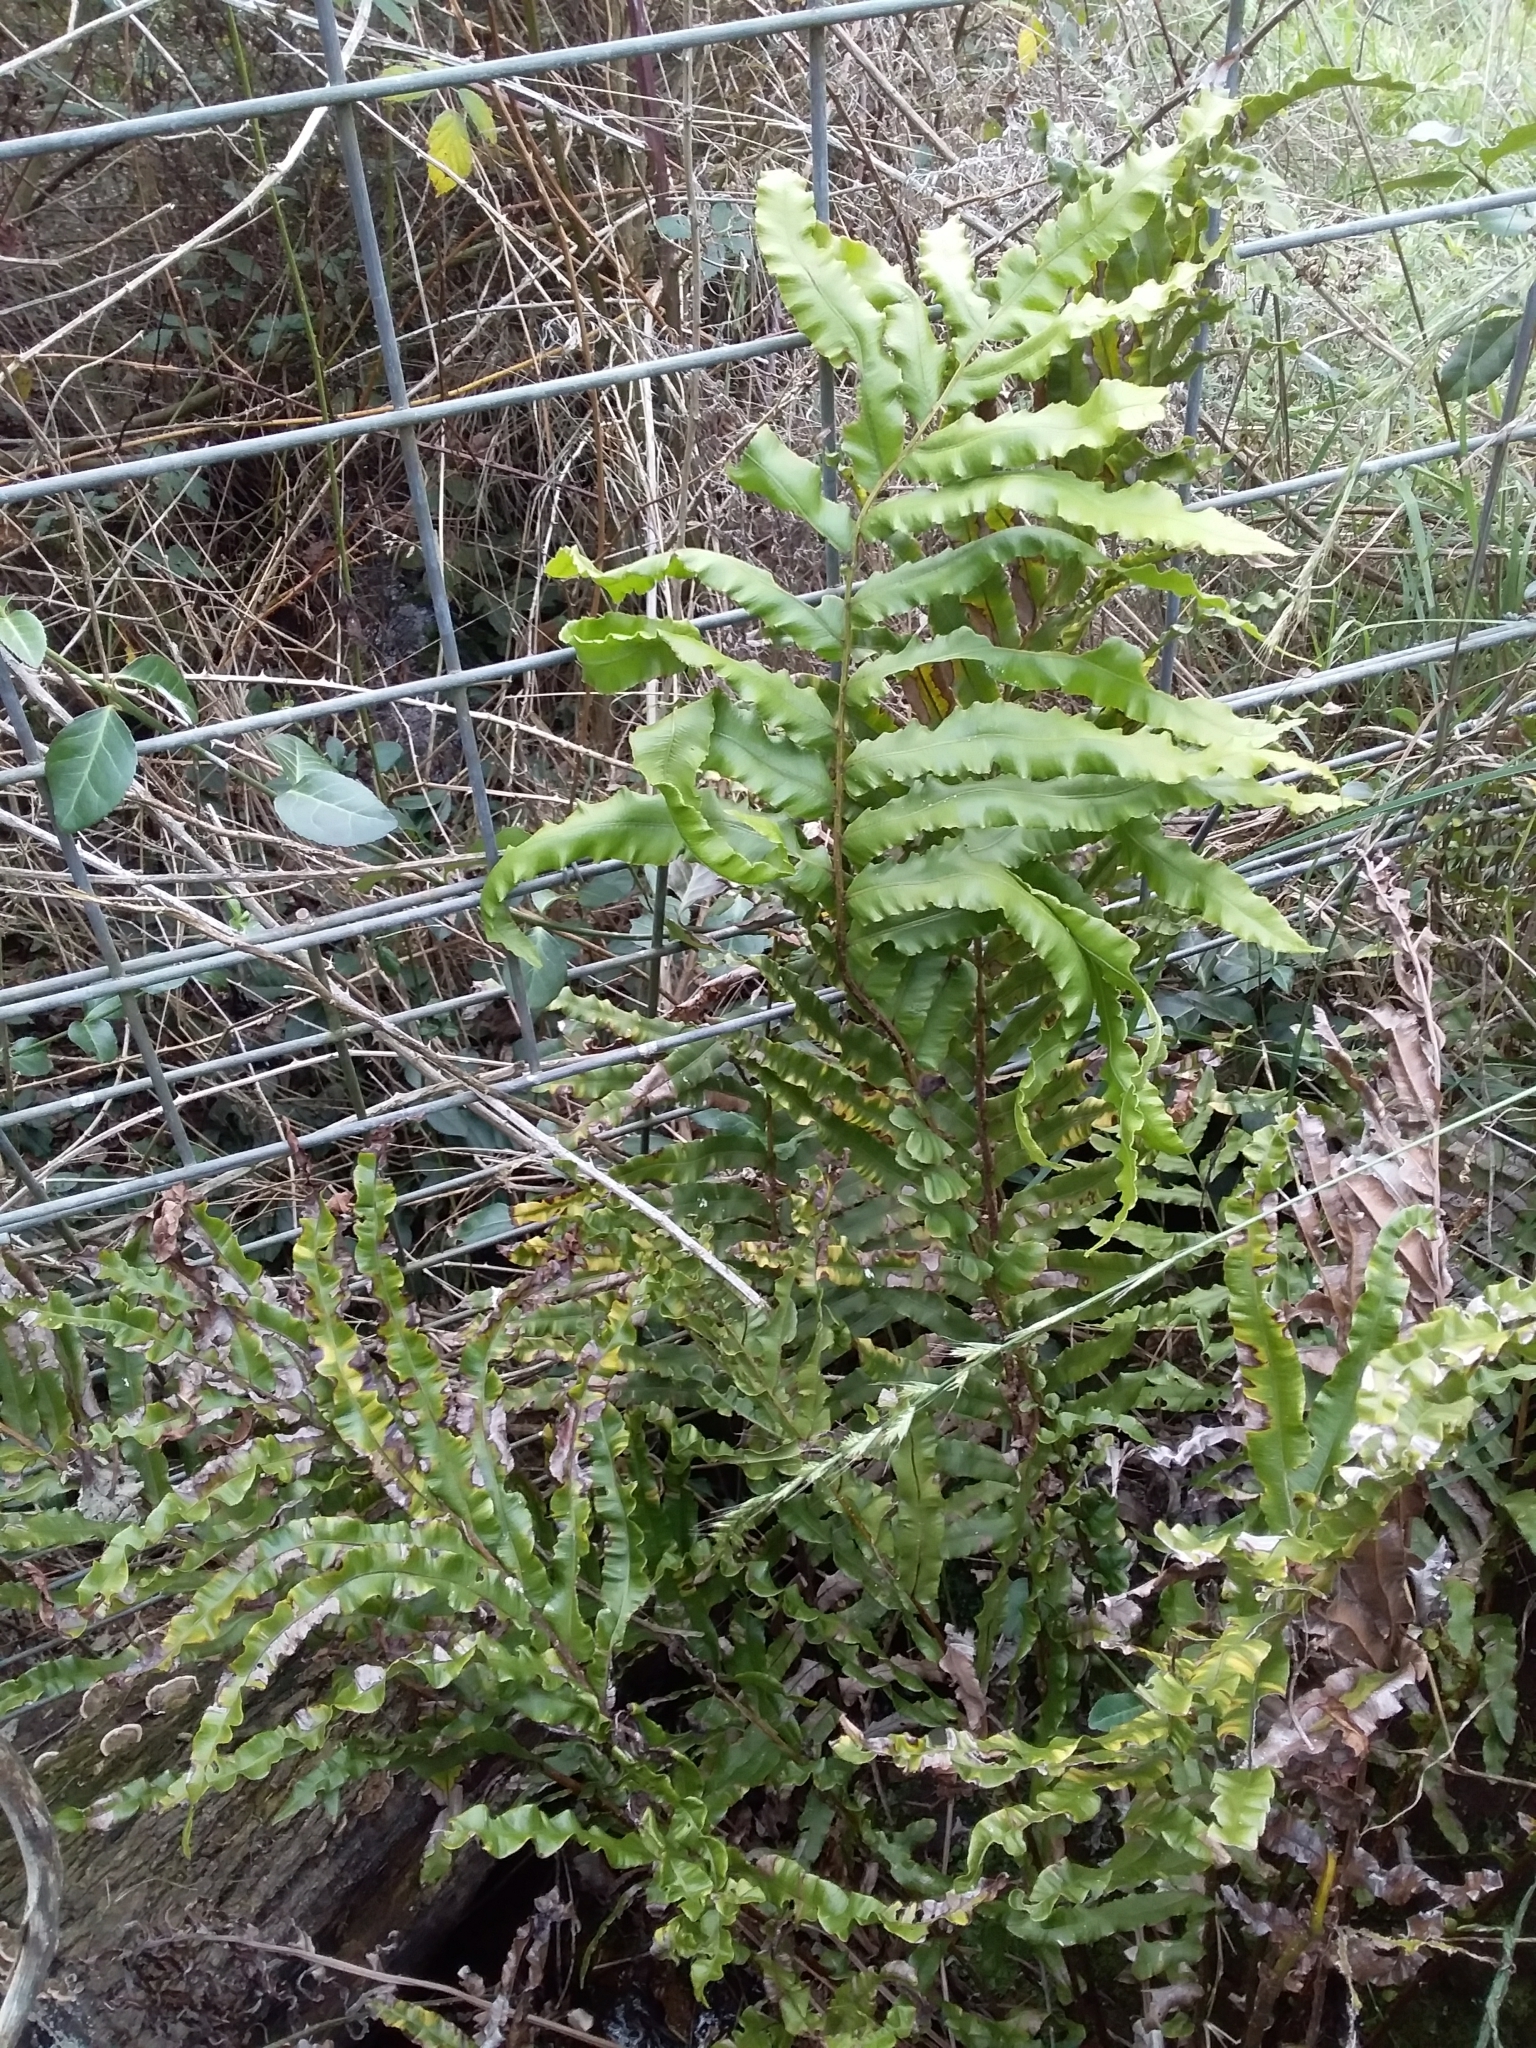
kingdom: Plantae
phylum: Tracheophyta
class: Polypodiopsida
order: Polypodiales
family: Blechnaceae
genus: Parablechnum
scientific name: Parablechnum minus
